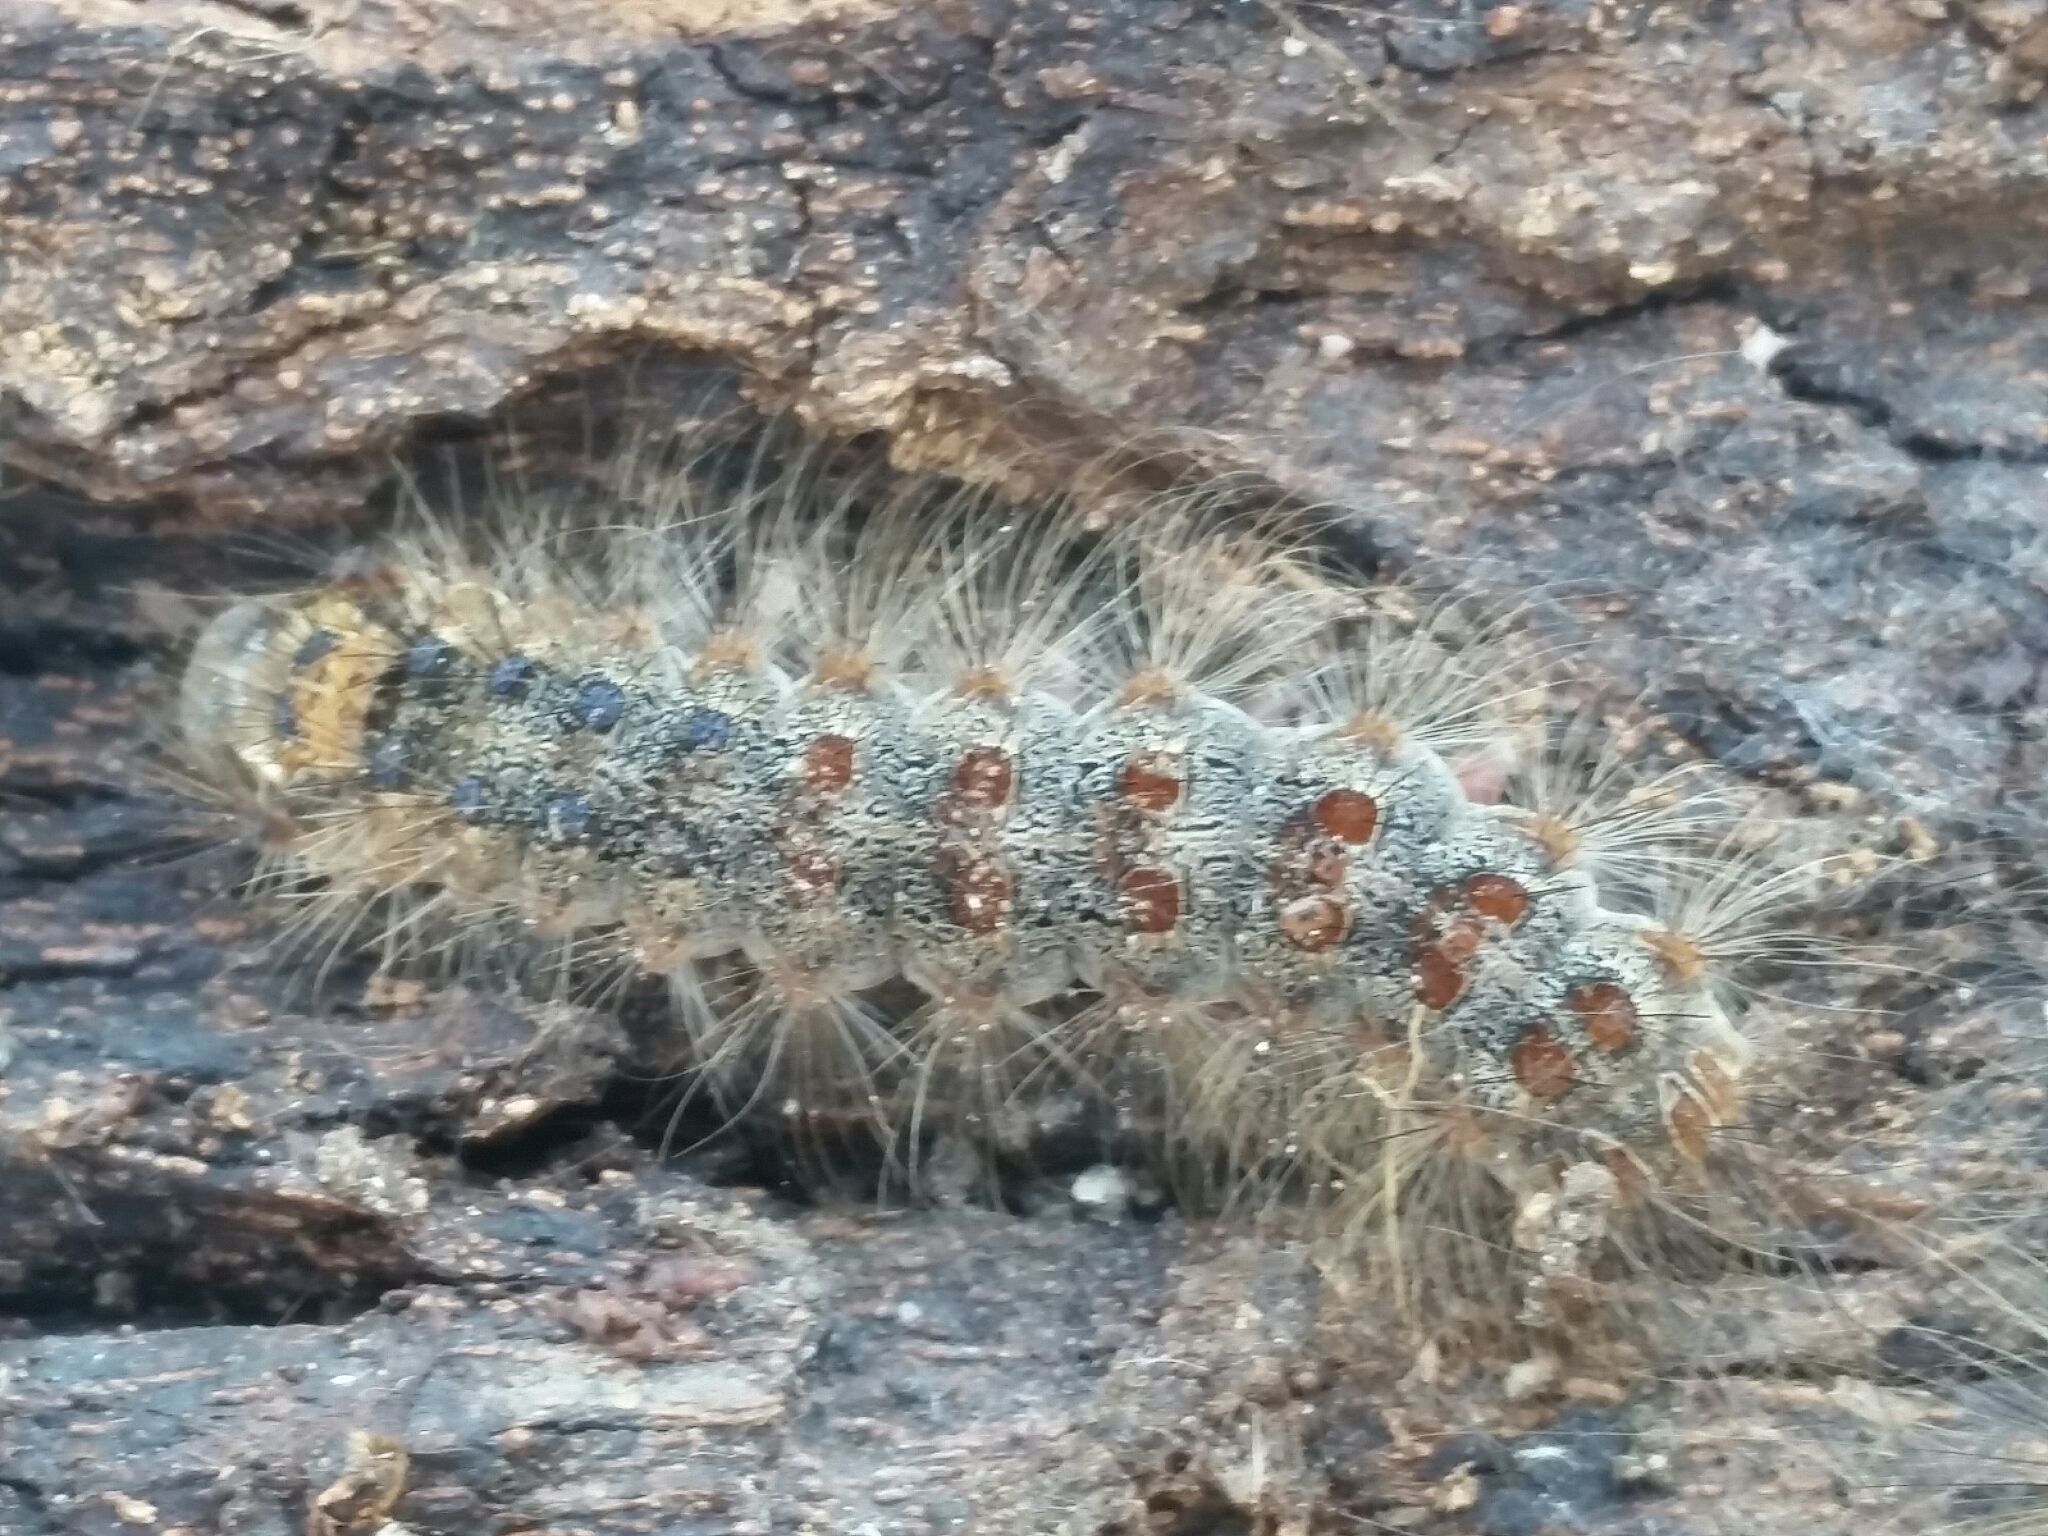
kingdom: Animalia
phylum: Arthropoda
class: Insecta
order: Lepidoptera
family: Erebidae
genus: Lymantria
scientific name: Lymantria dispar
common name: Gypsy moth
